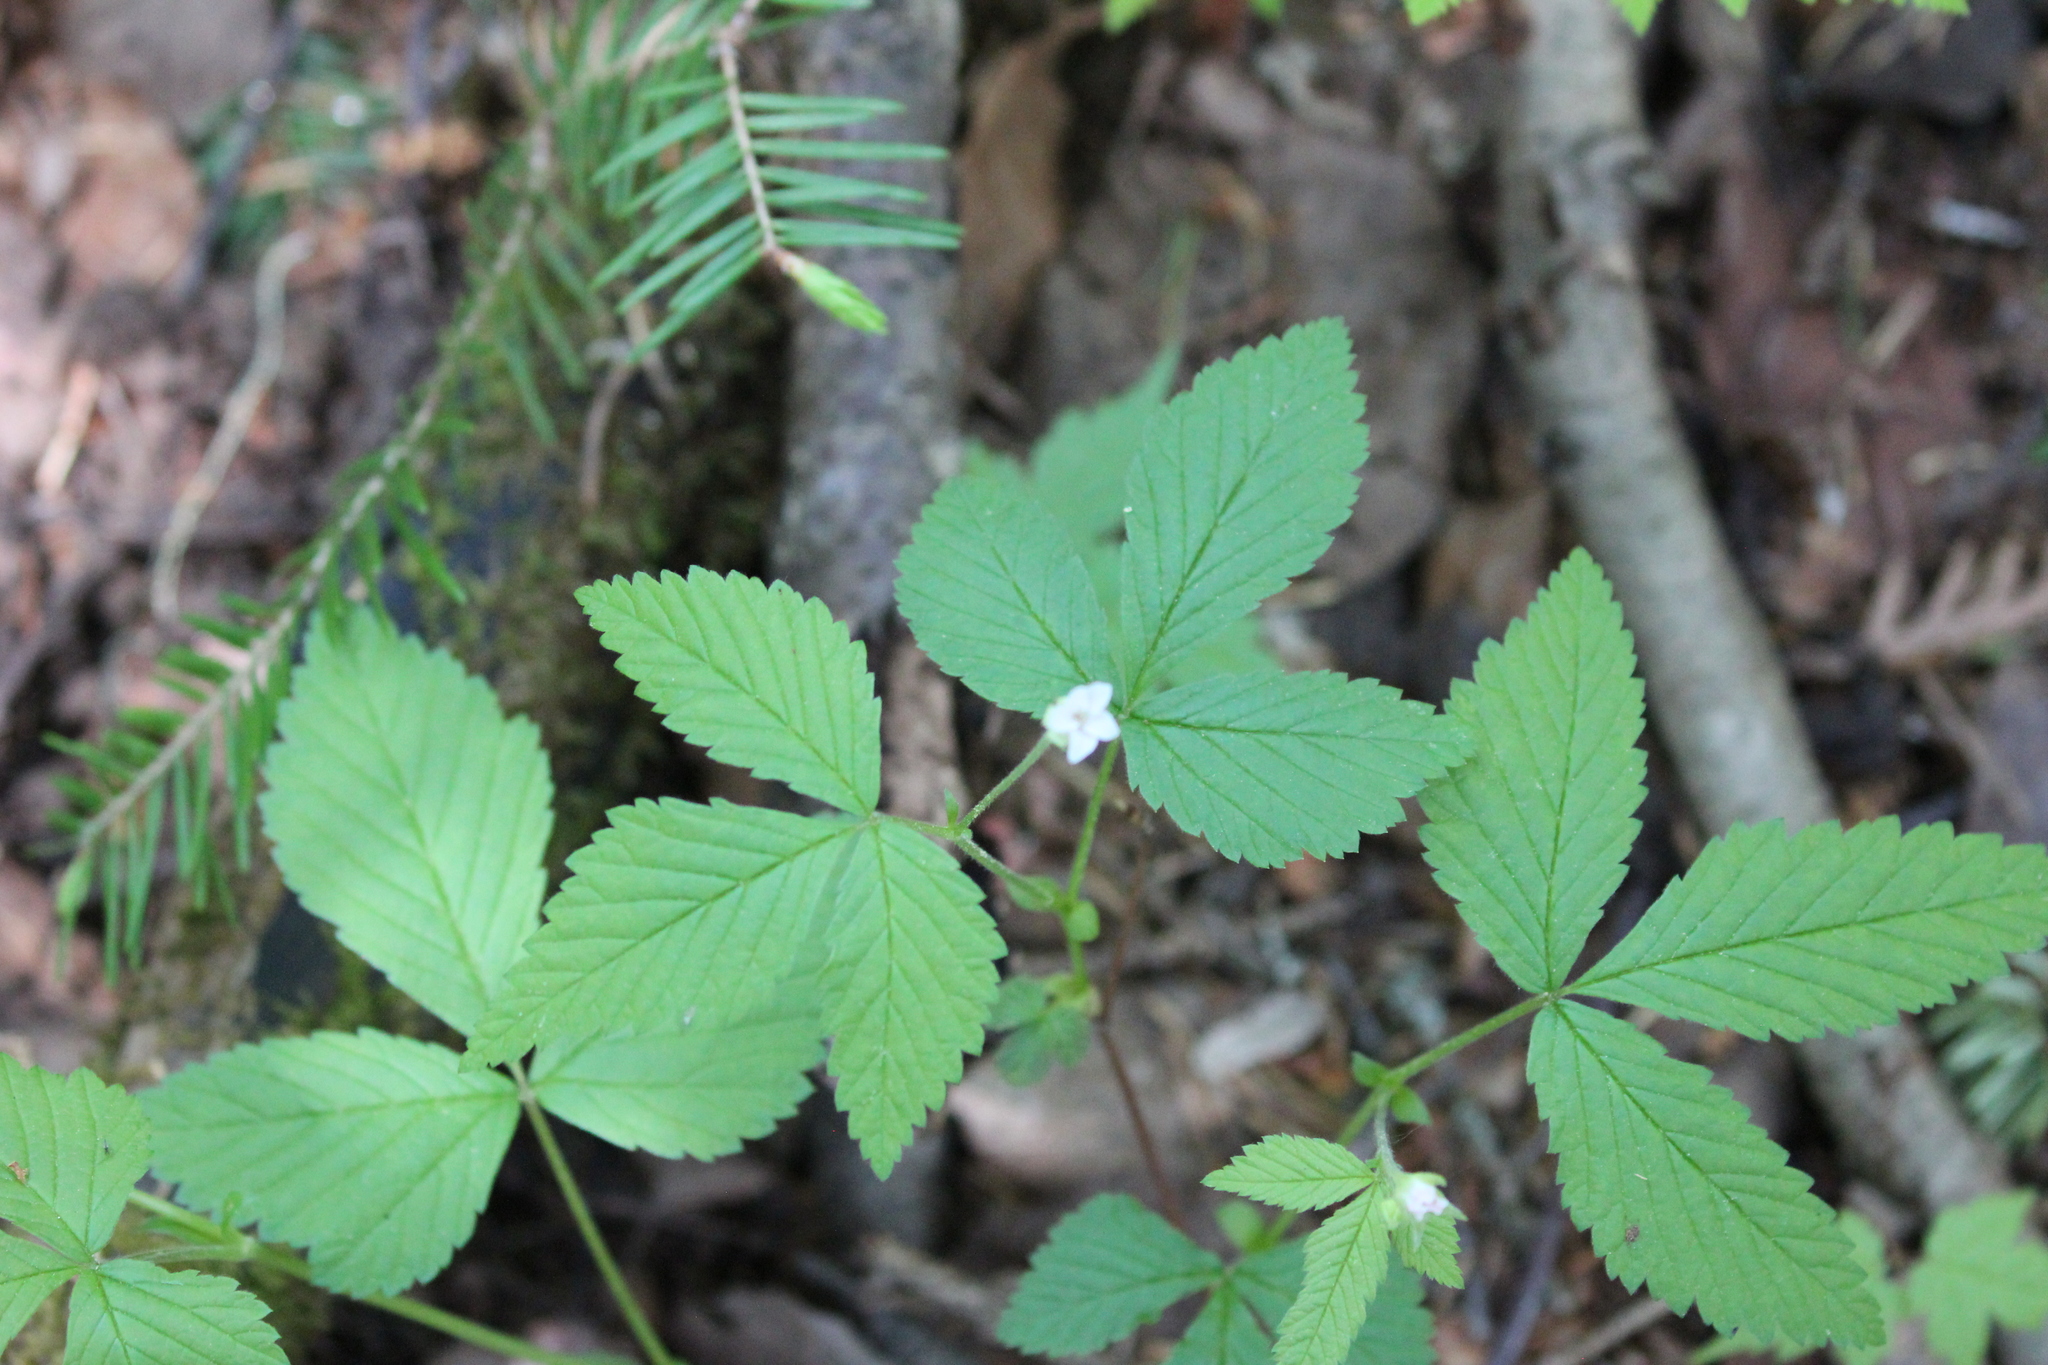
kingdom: Plantae
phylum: Tracheophyta
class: Magnoliopsida
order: Rosales
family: Rosaceae
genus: Rubus
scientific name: Rubus pubescens
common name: Dwarf raspberry
